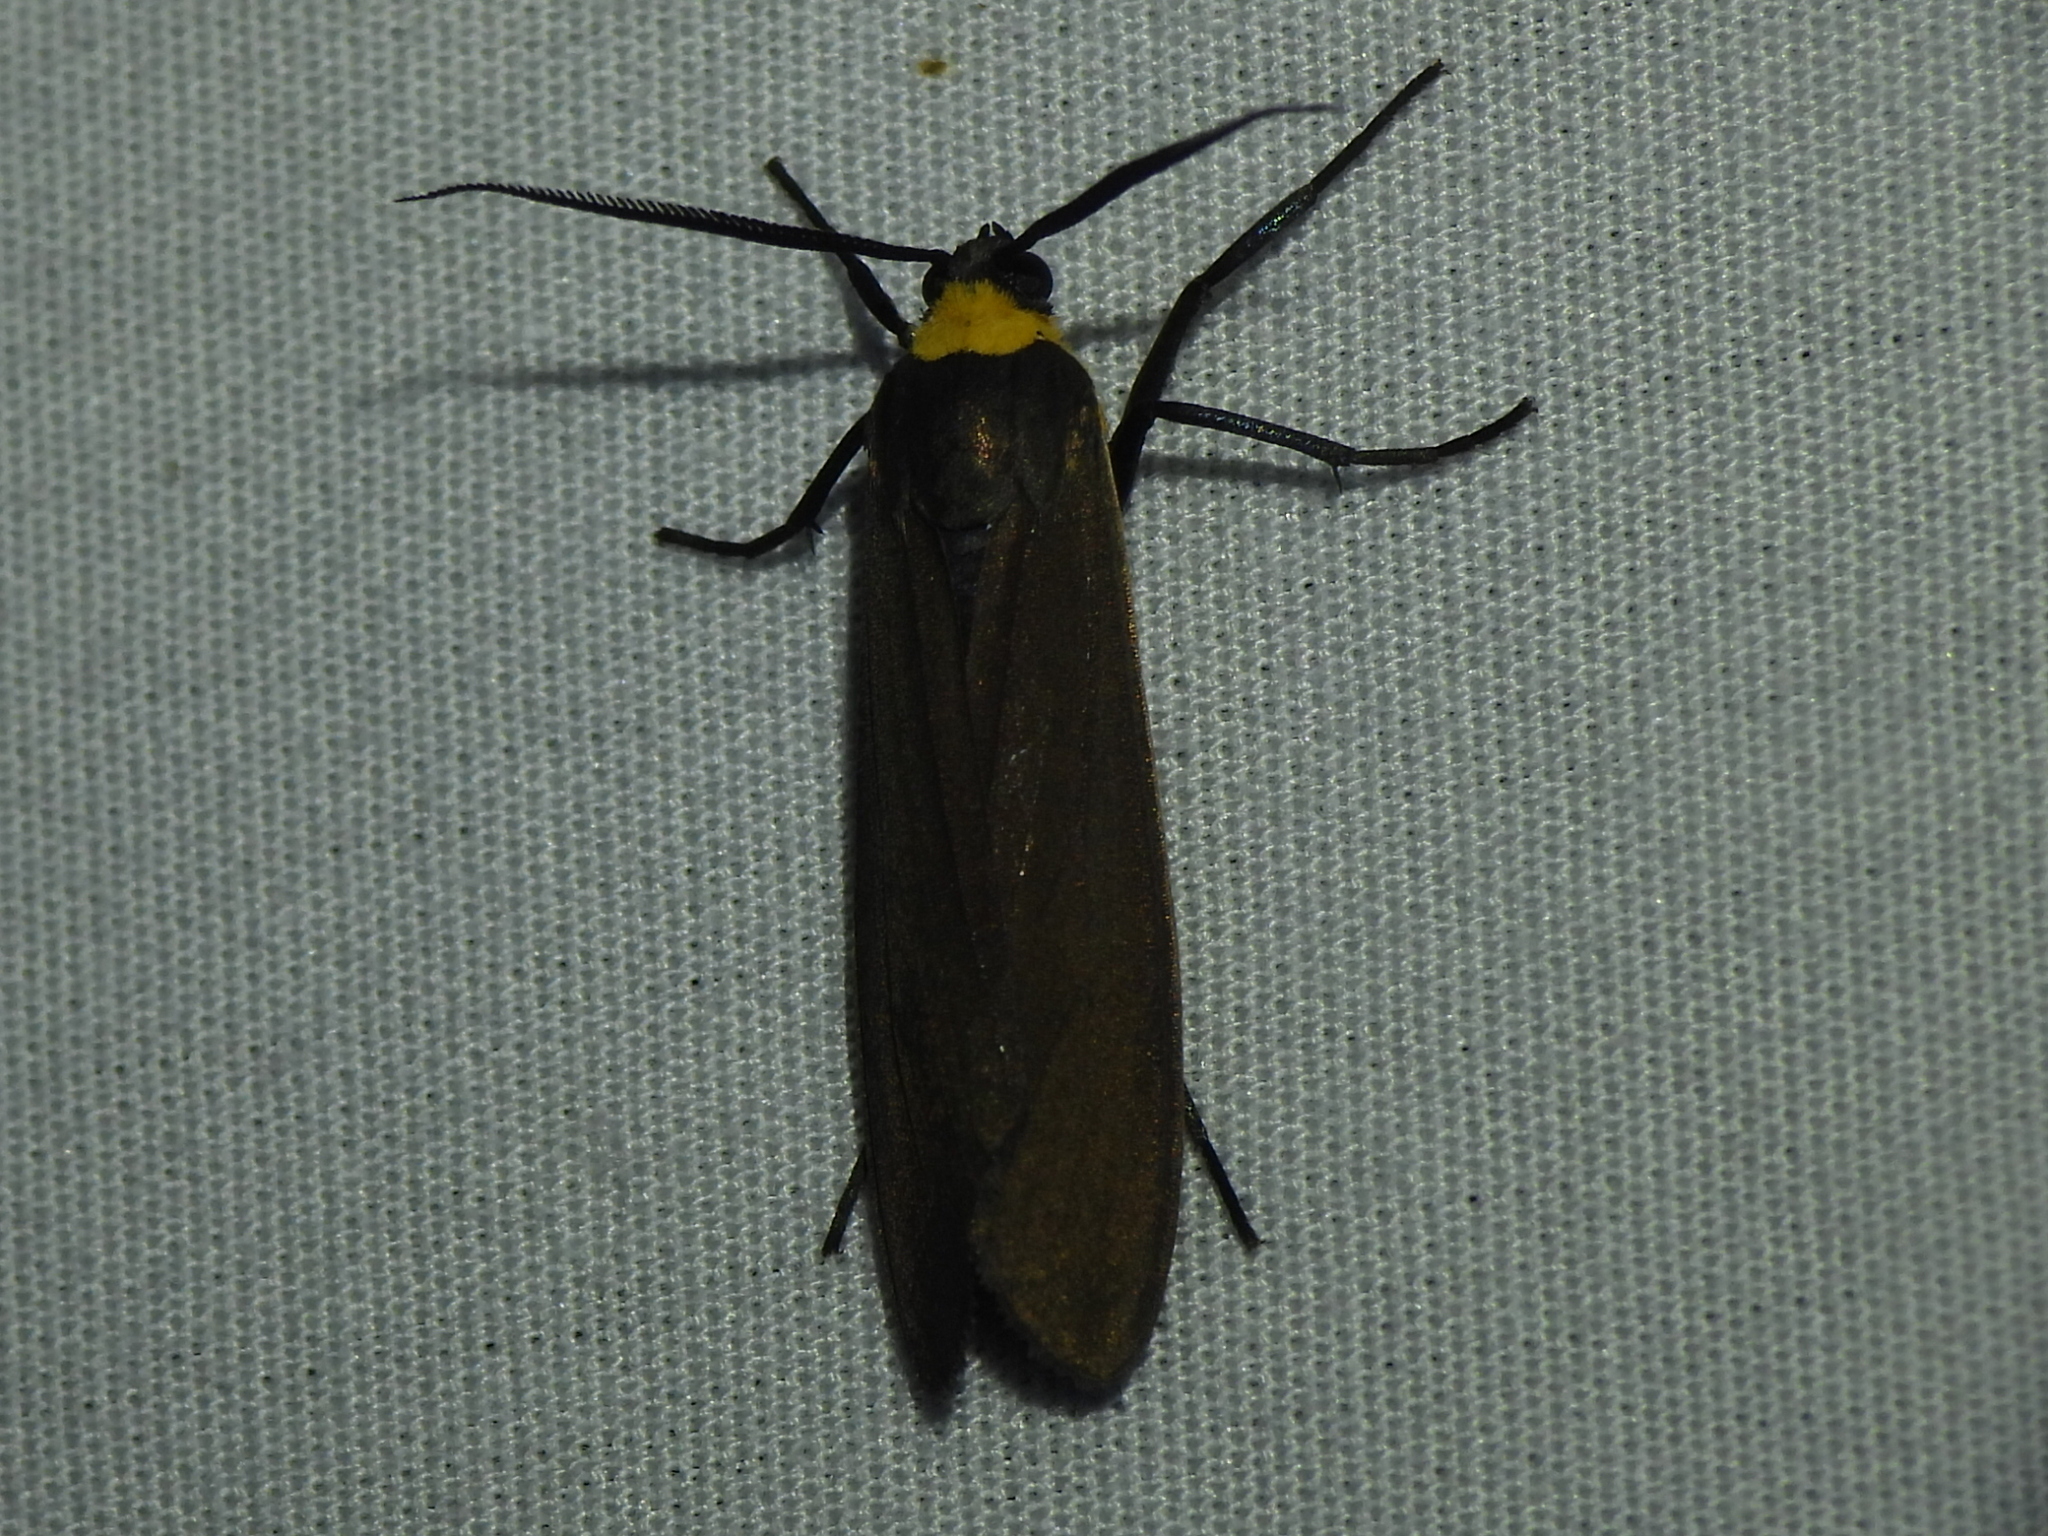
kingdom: Animalia
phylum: Arthropoda
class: Insecta
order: Lepidoptera
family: Erebidae
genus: Cisseps
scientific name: Cisseps fulvicollis
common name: Yellow-collared scape moth
